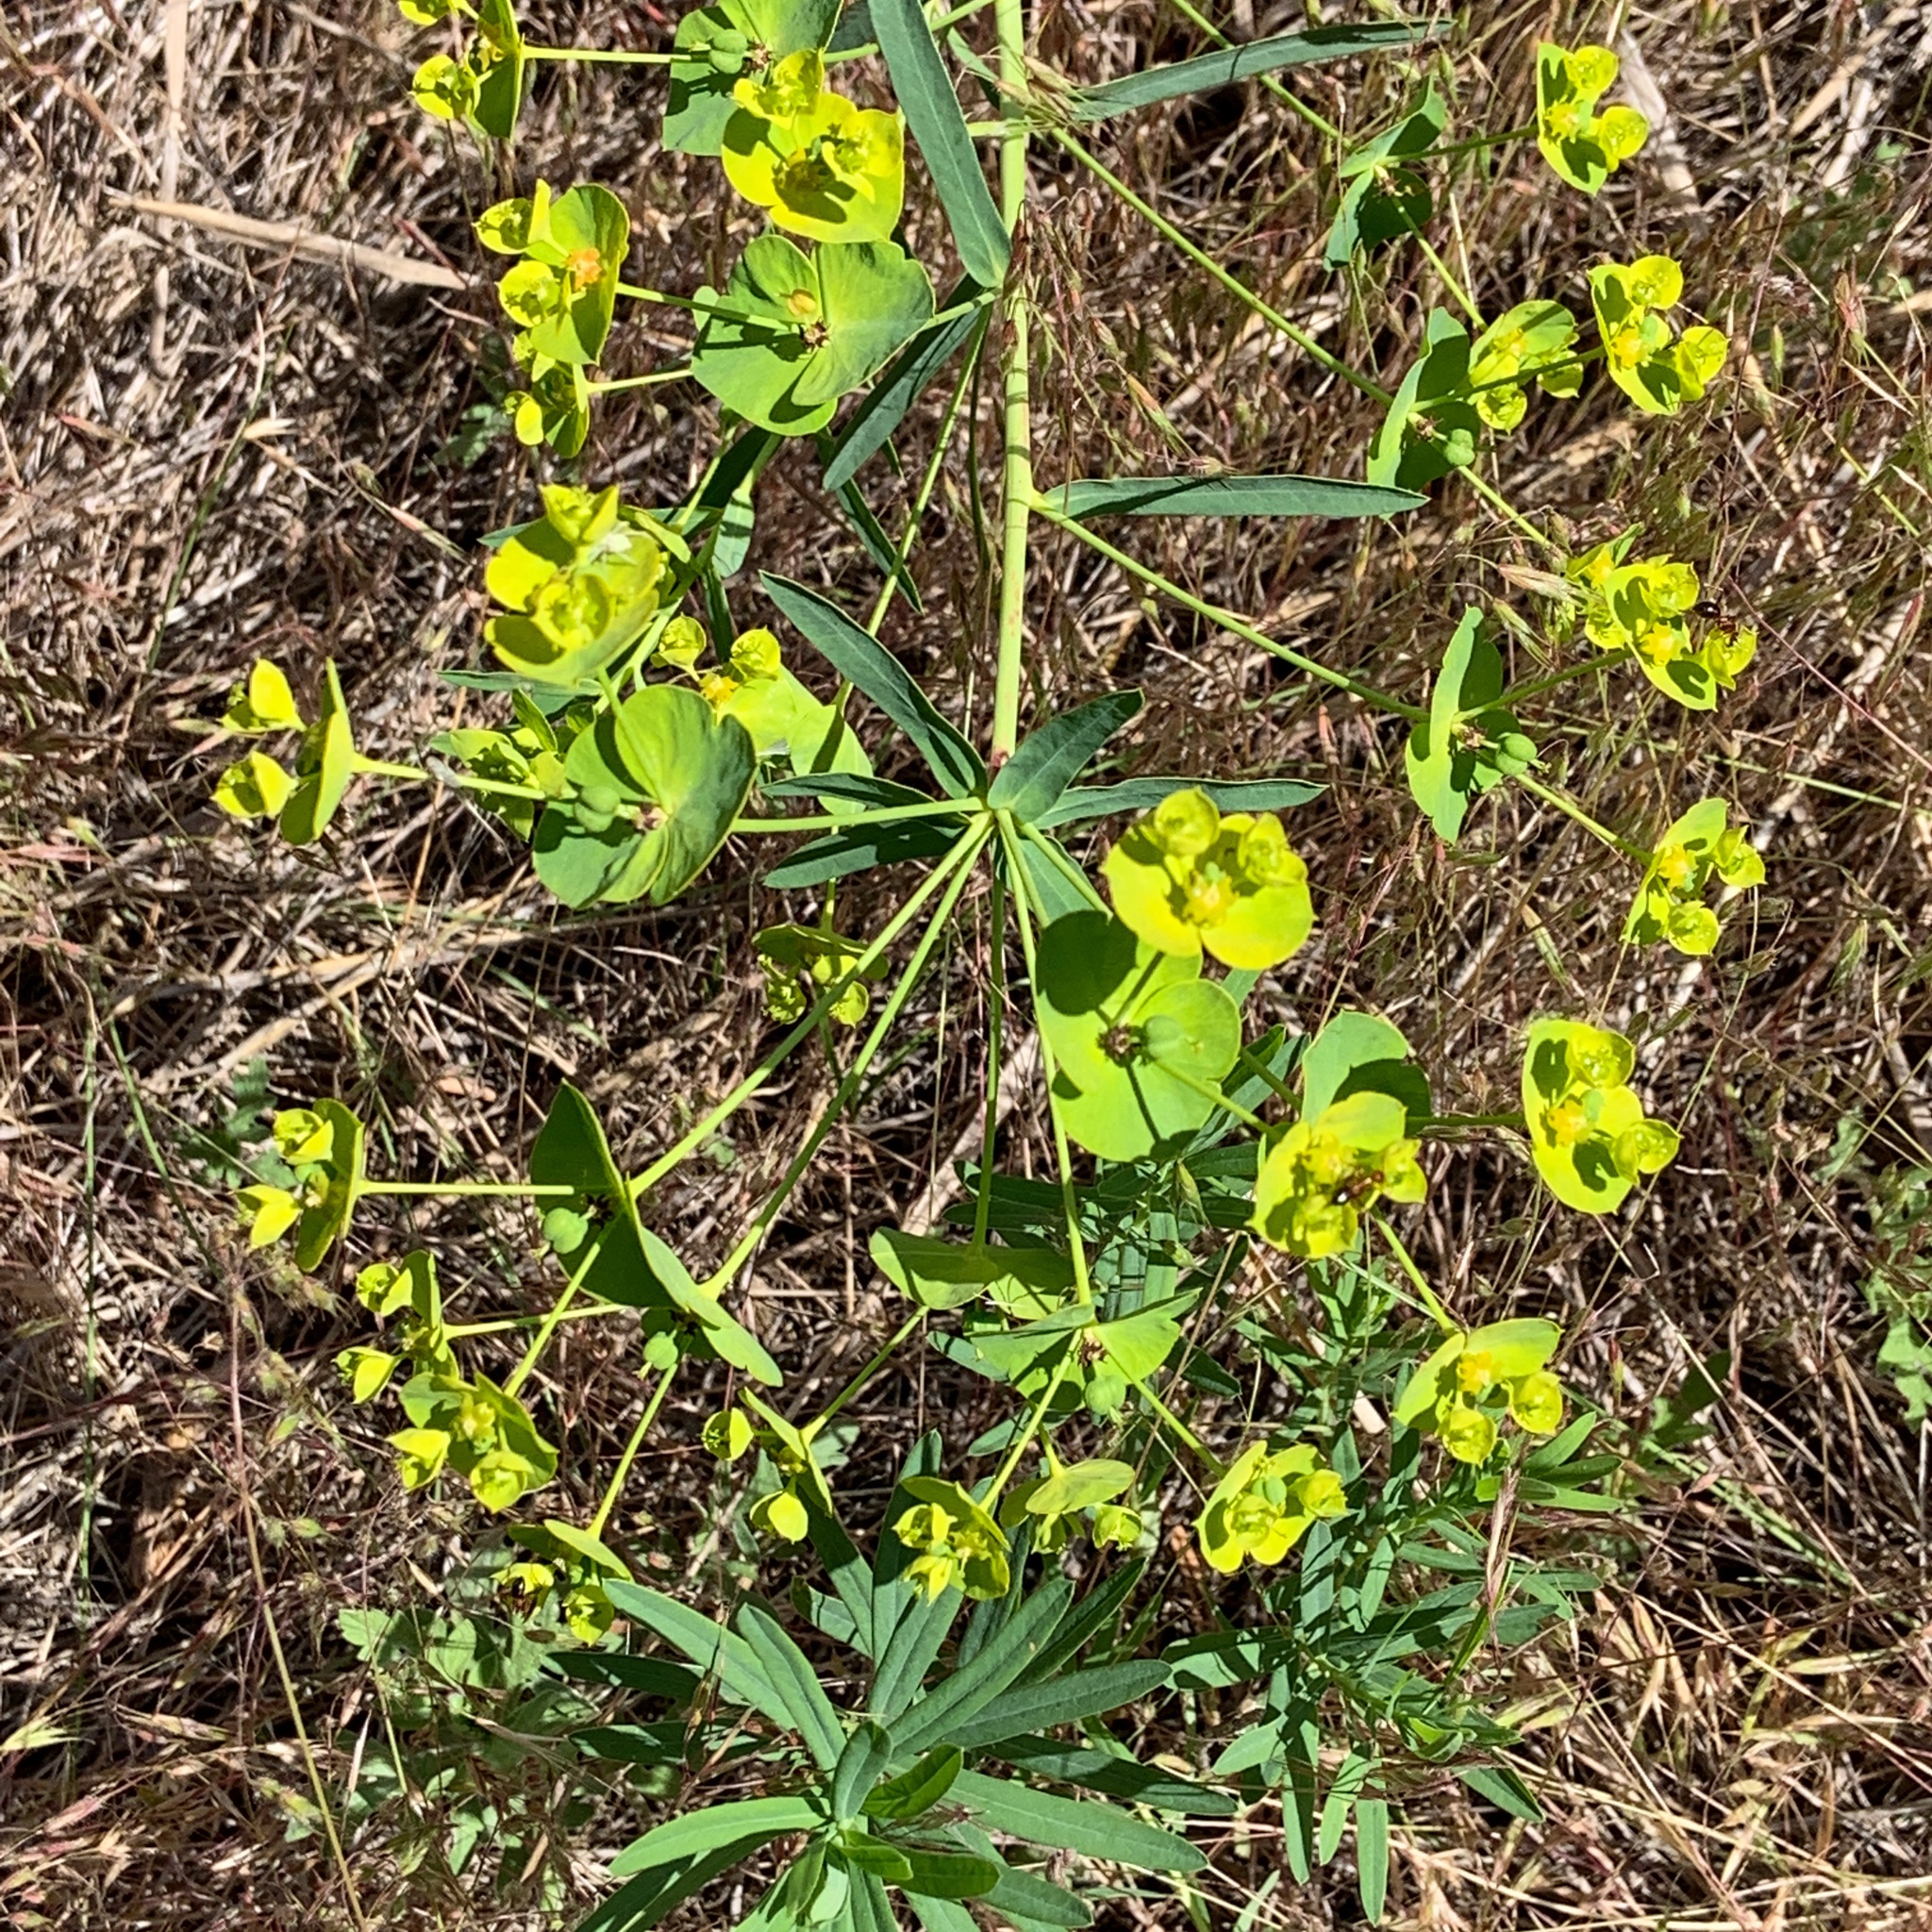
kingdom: Plantae
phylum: Tracheophyta
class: Magnoliopsida
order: Malpighiales
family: Euphorbiaceae
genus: Euphorbia
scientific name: Euphorbia virgata
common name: Leafy spurge
